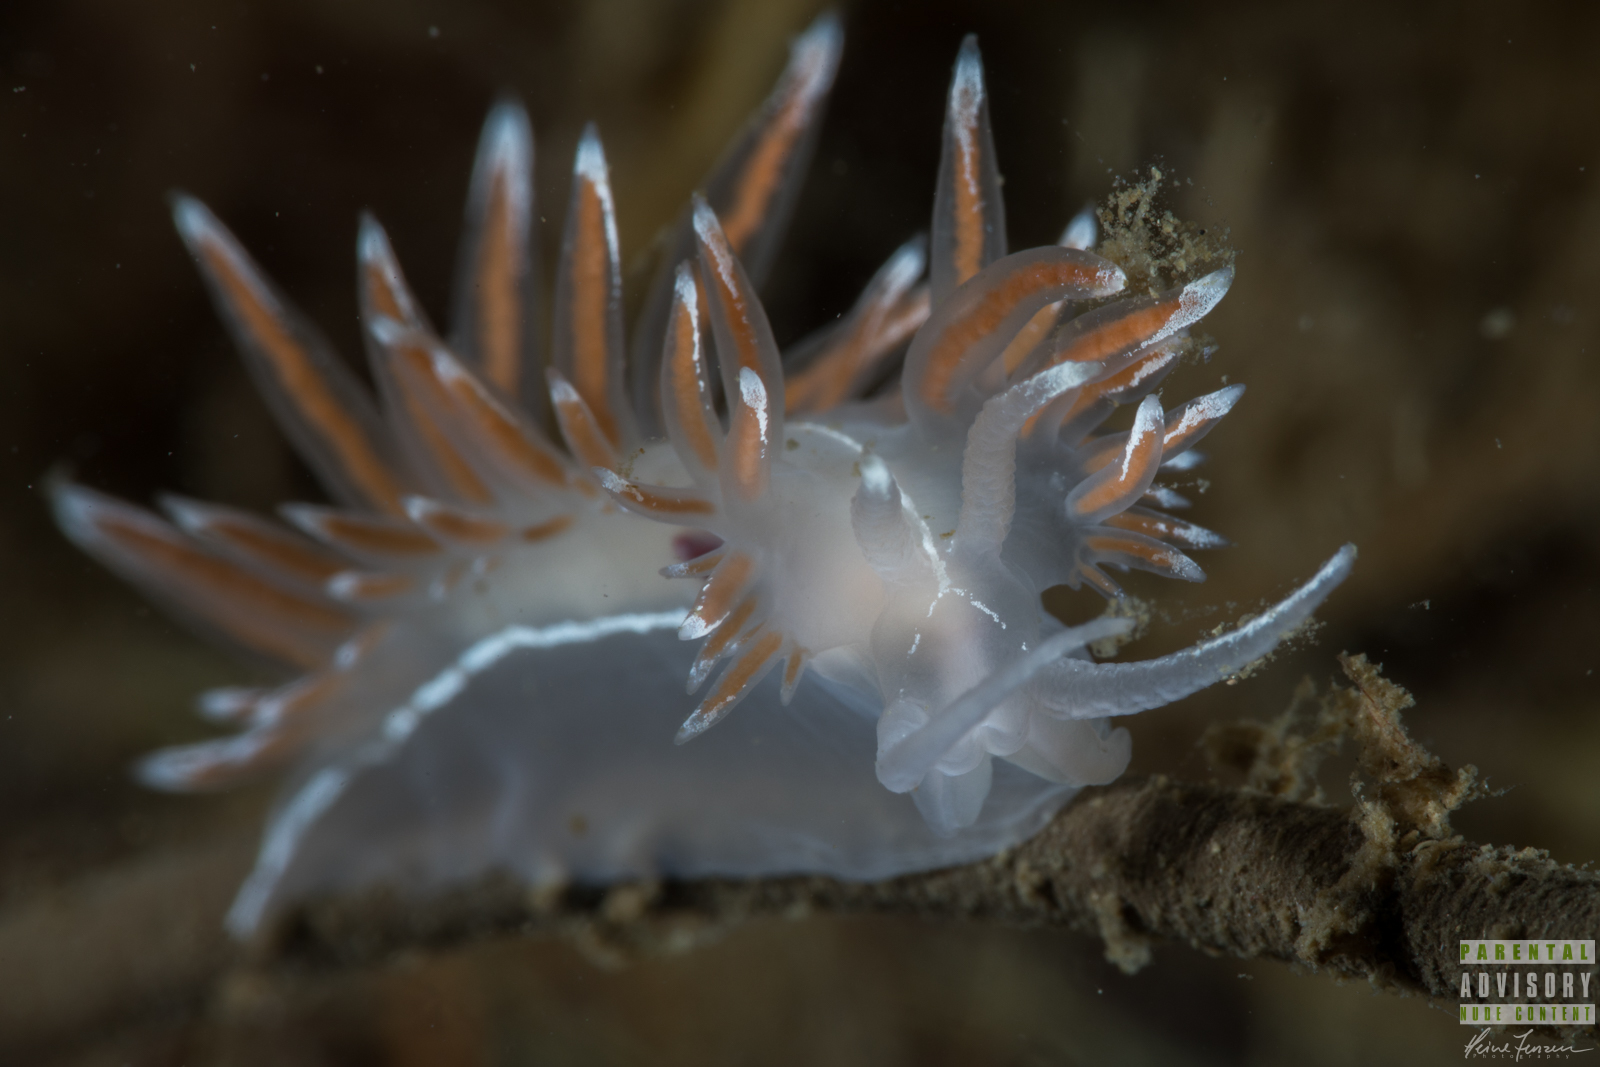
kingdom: Animalia
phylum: Mollusca
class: Gastropoda
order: Nudibranchia
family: Coryphellidae
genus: Coryphella
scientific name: Coryphella lineata
